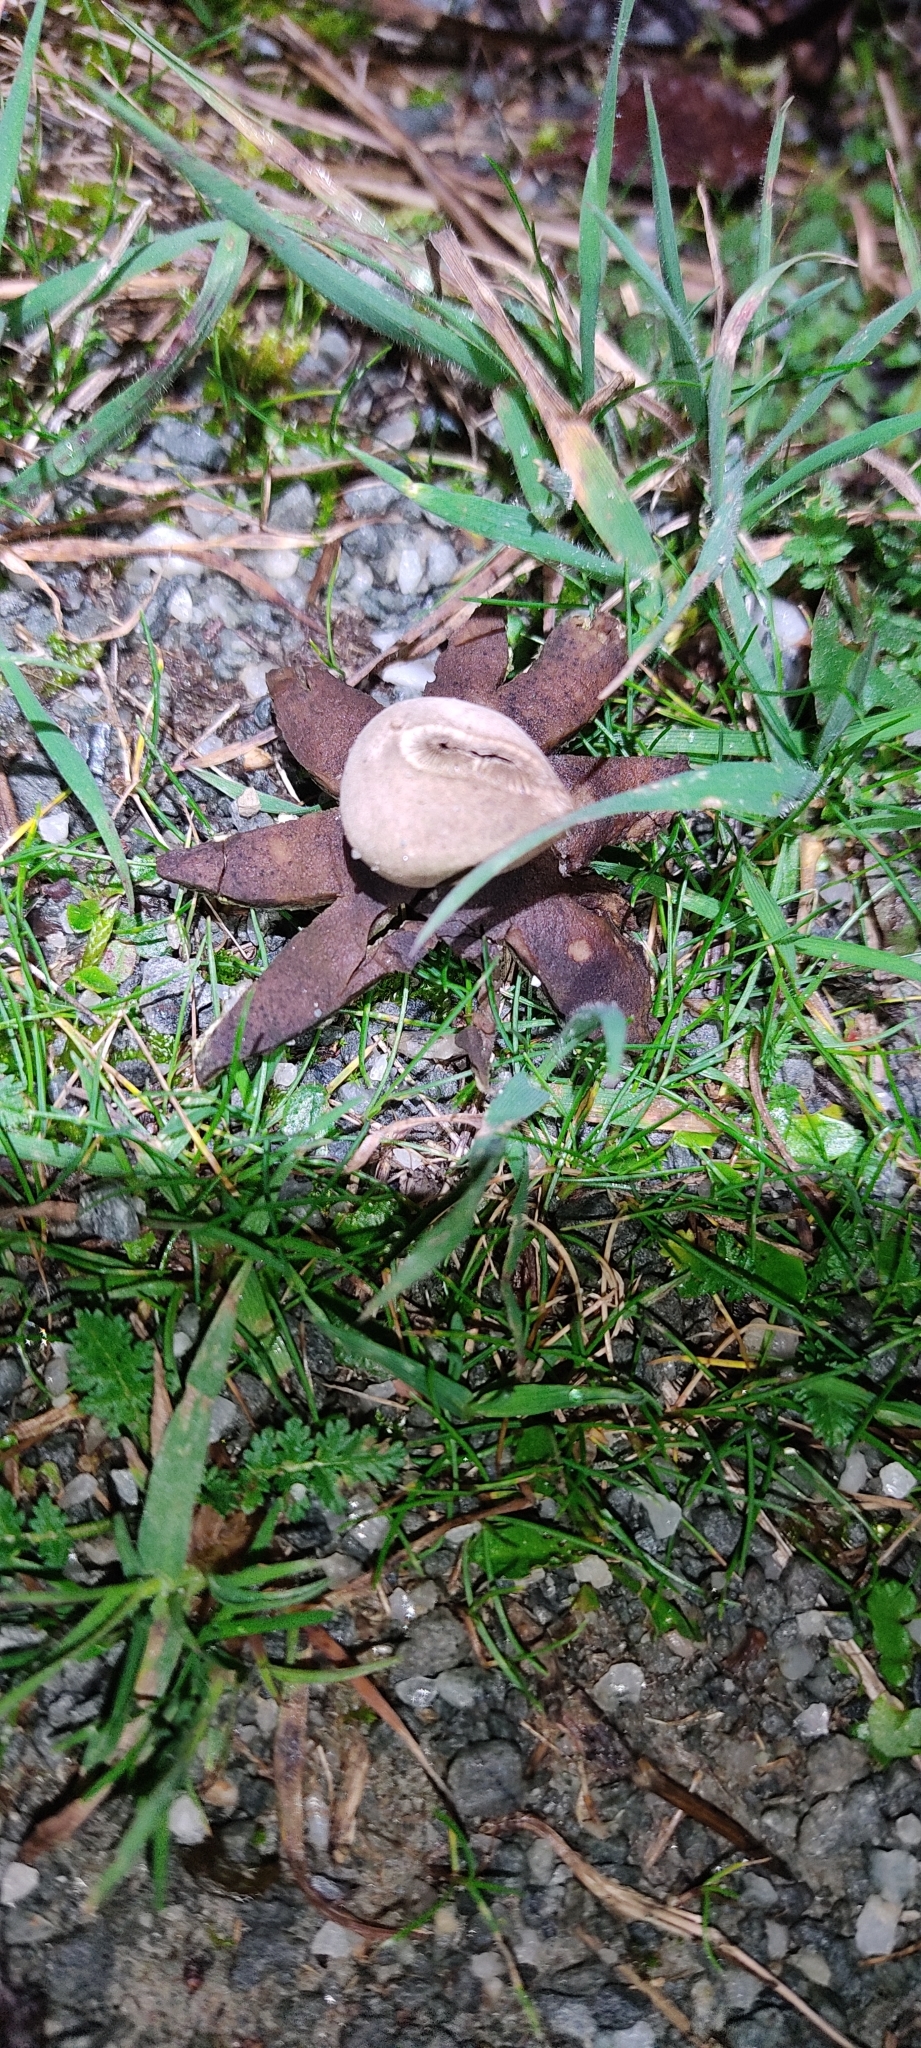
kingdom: Fungi
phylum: Basidiomycota
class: Agaricomycetes
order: Boletales
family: Diplocystidiaceae
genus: Astraeus
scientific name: Astraeus hygrometricus
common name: Barometer earthstar
